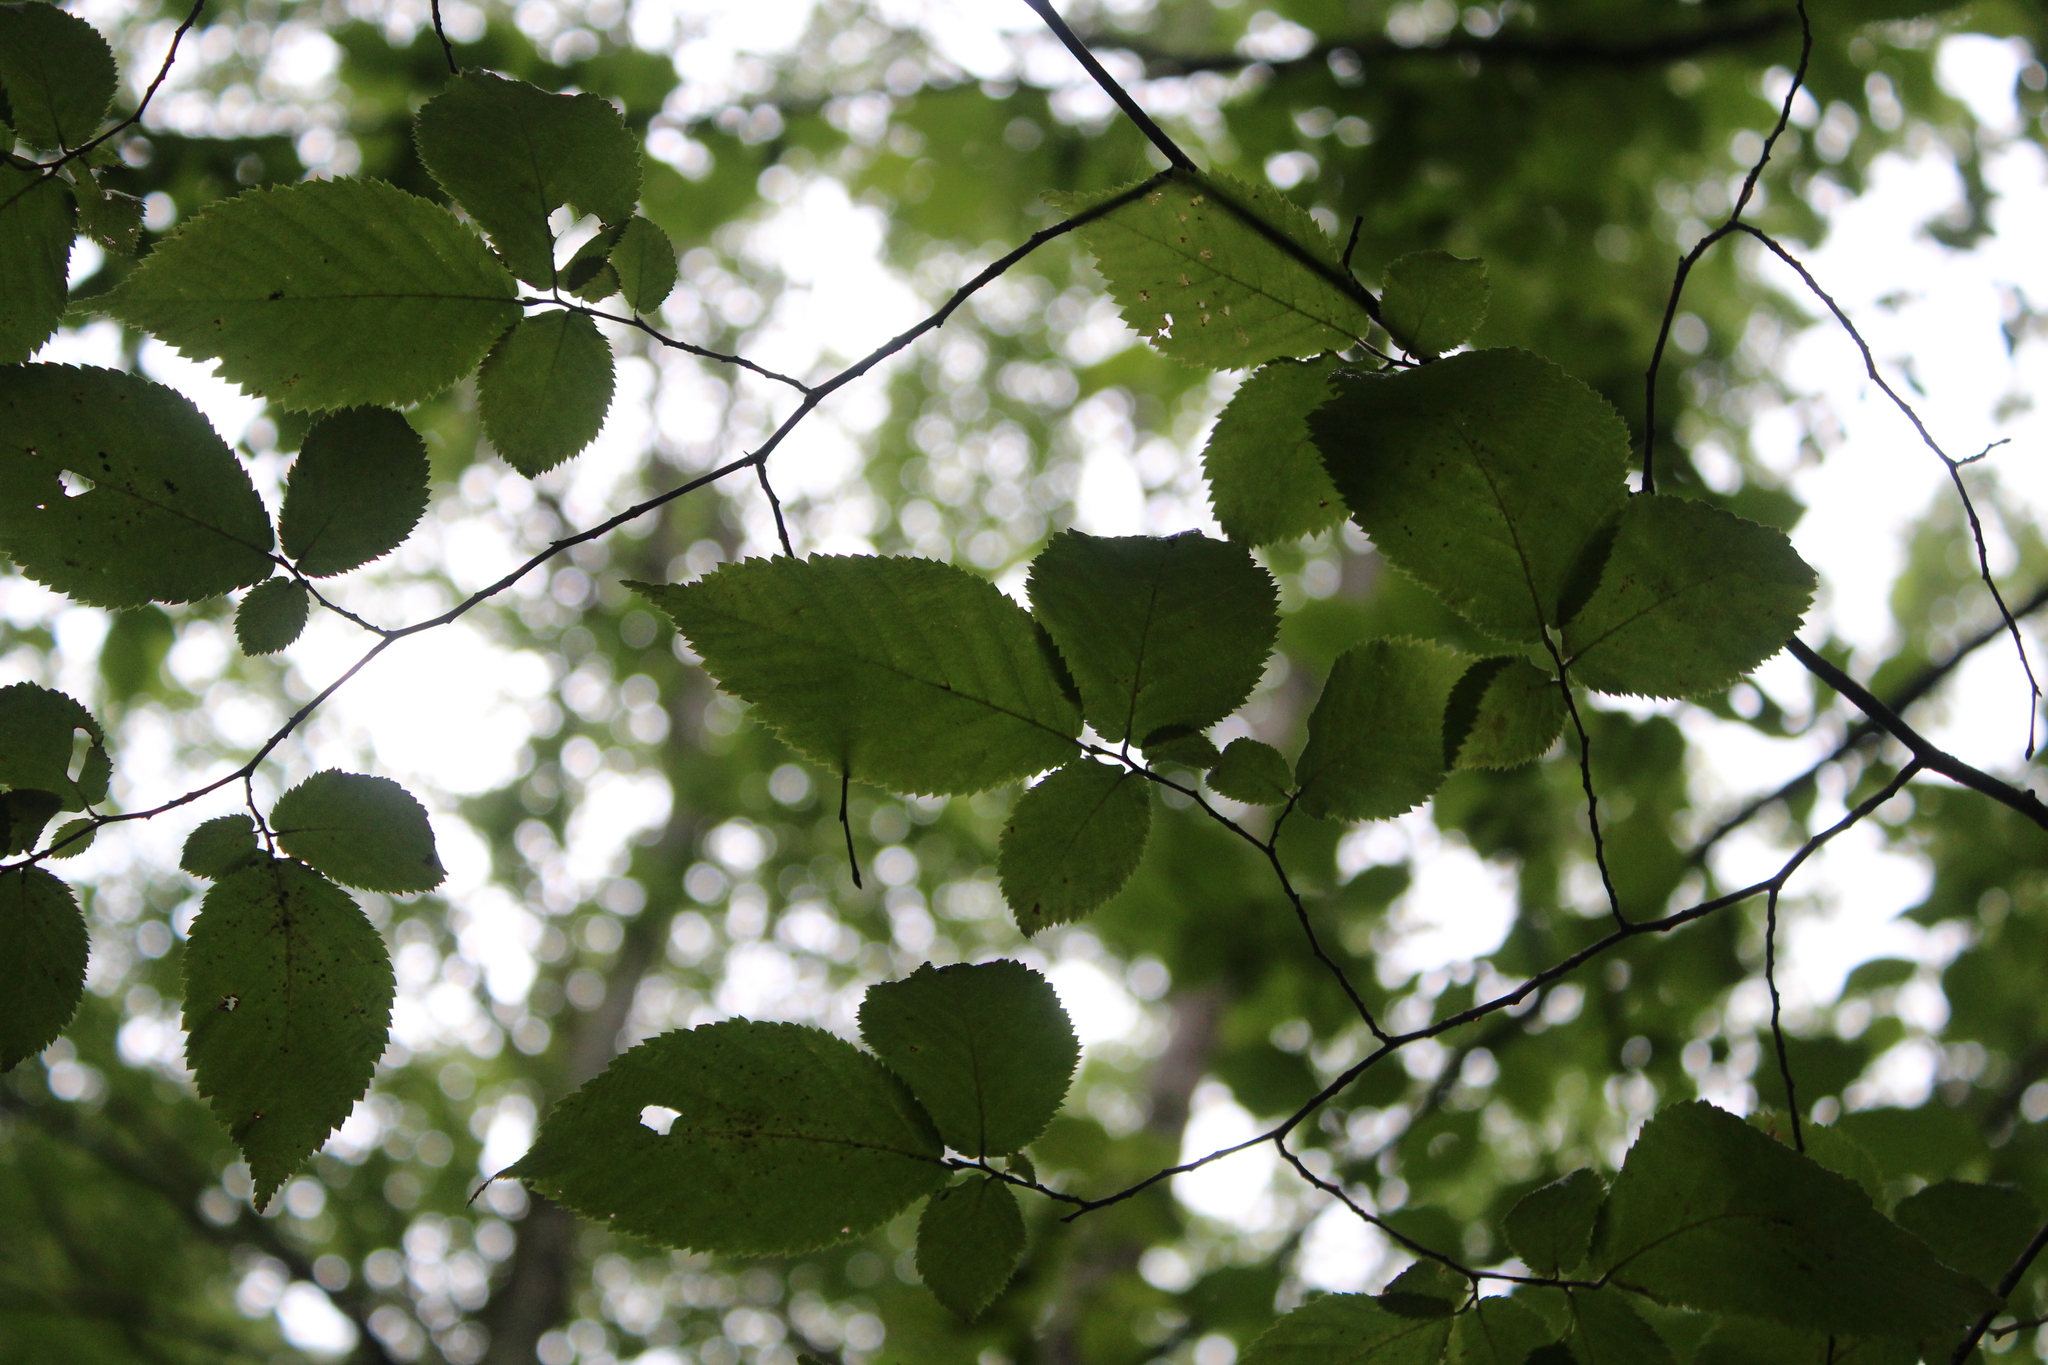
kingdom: Plantae
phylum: Tracheophyta
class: Magnoliopsida
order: Fagales
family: Betulaceae
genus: Ostrya
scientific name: Ostrya virginiana
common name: Ironwood
